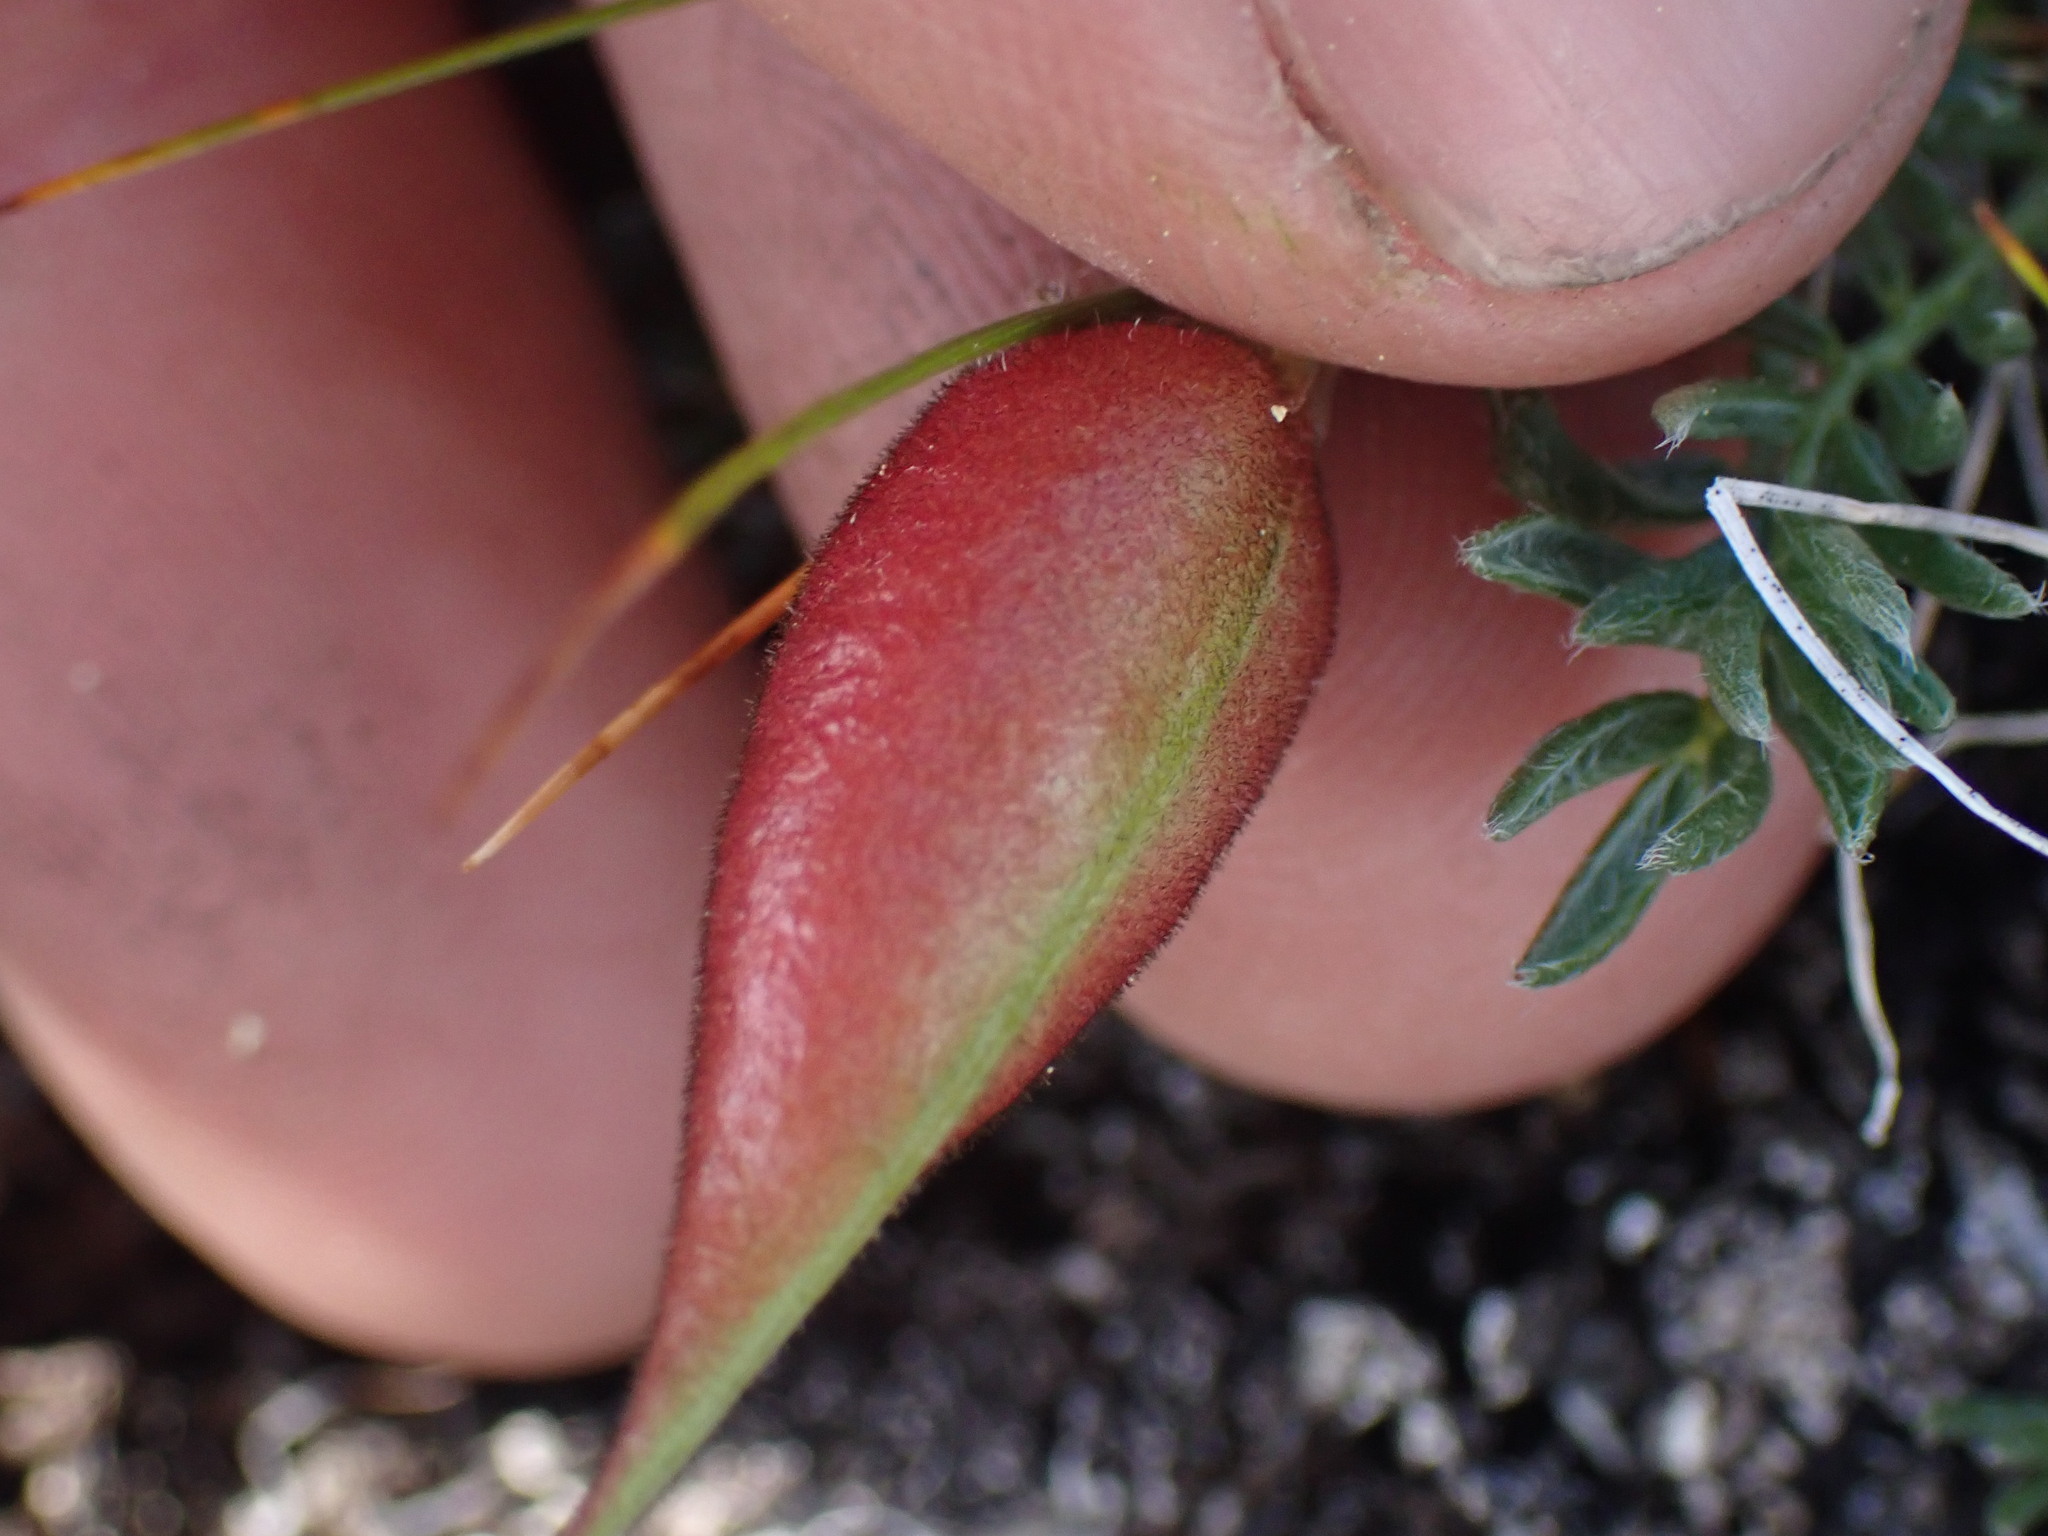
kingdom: Plantae
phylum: Tracheophyta
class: Magnoliopsida
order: Fabales
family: Fabaceae
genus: Oxytropis
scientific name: Oxytropis podocarpa
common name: Gray's oxytrope
